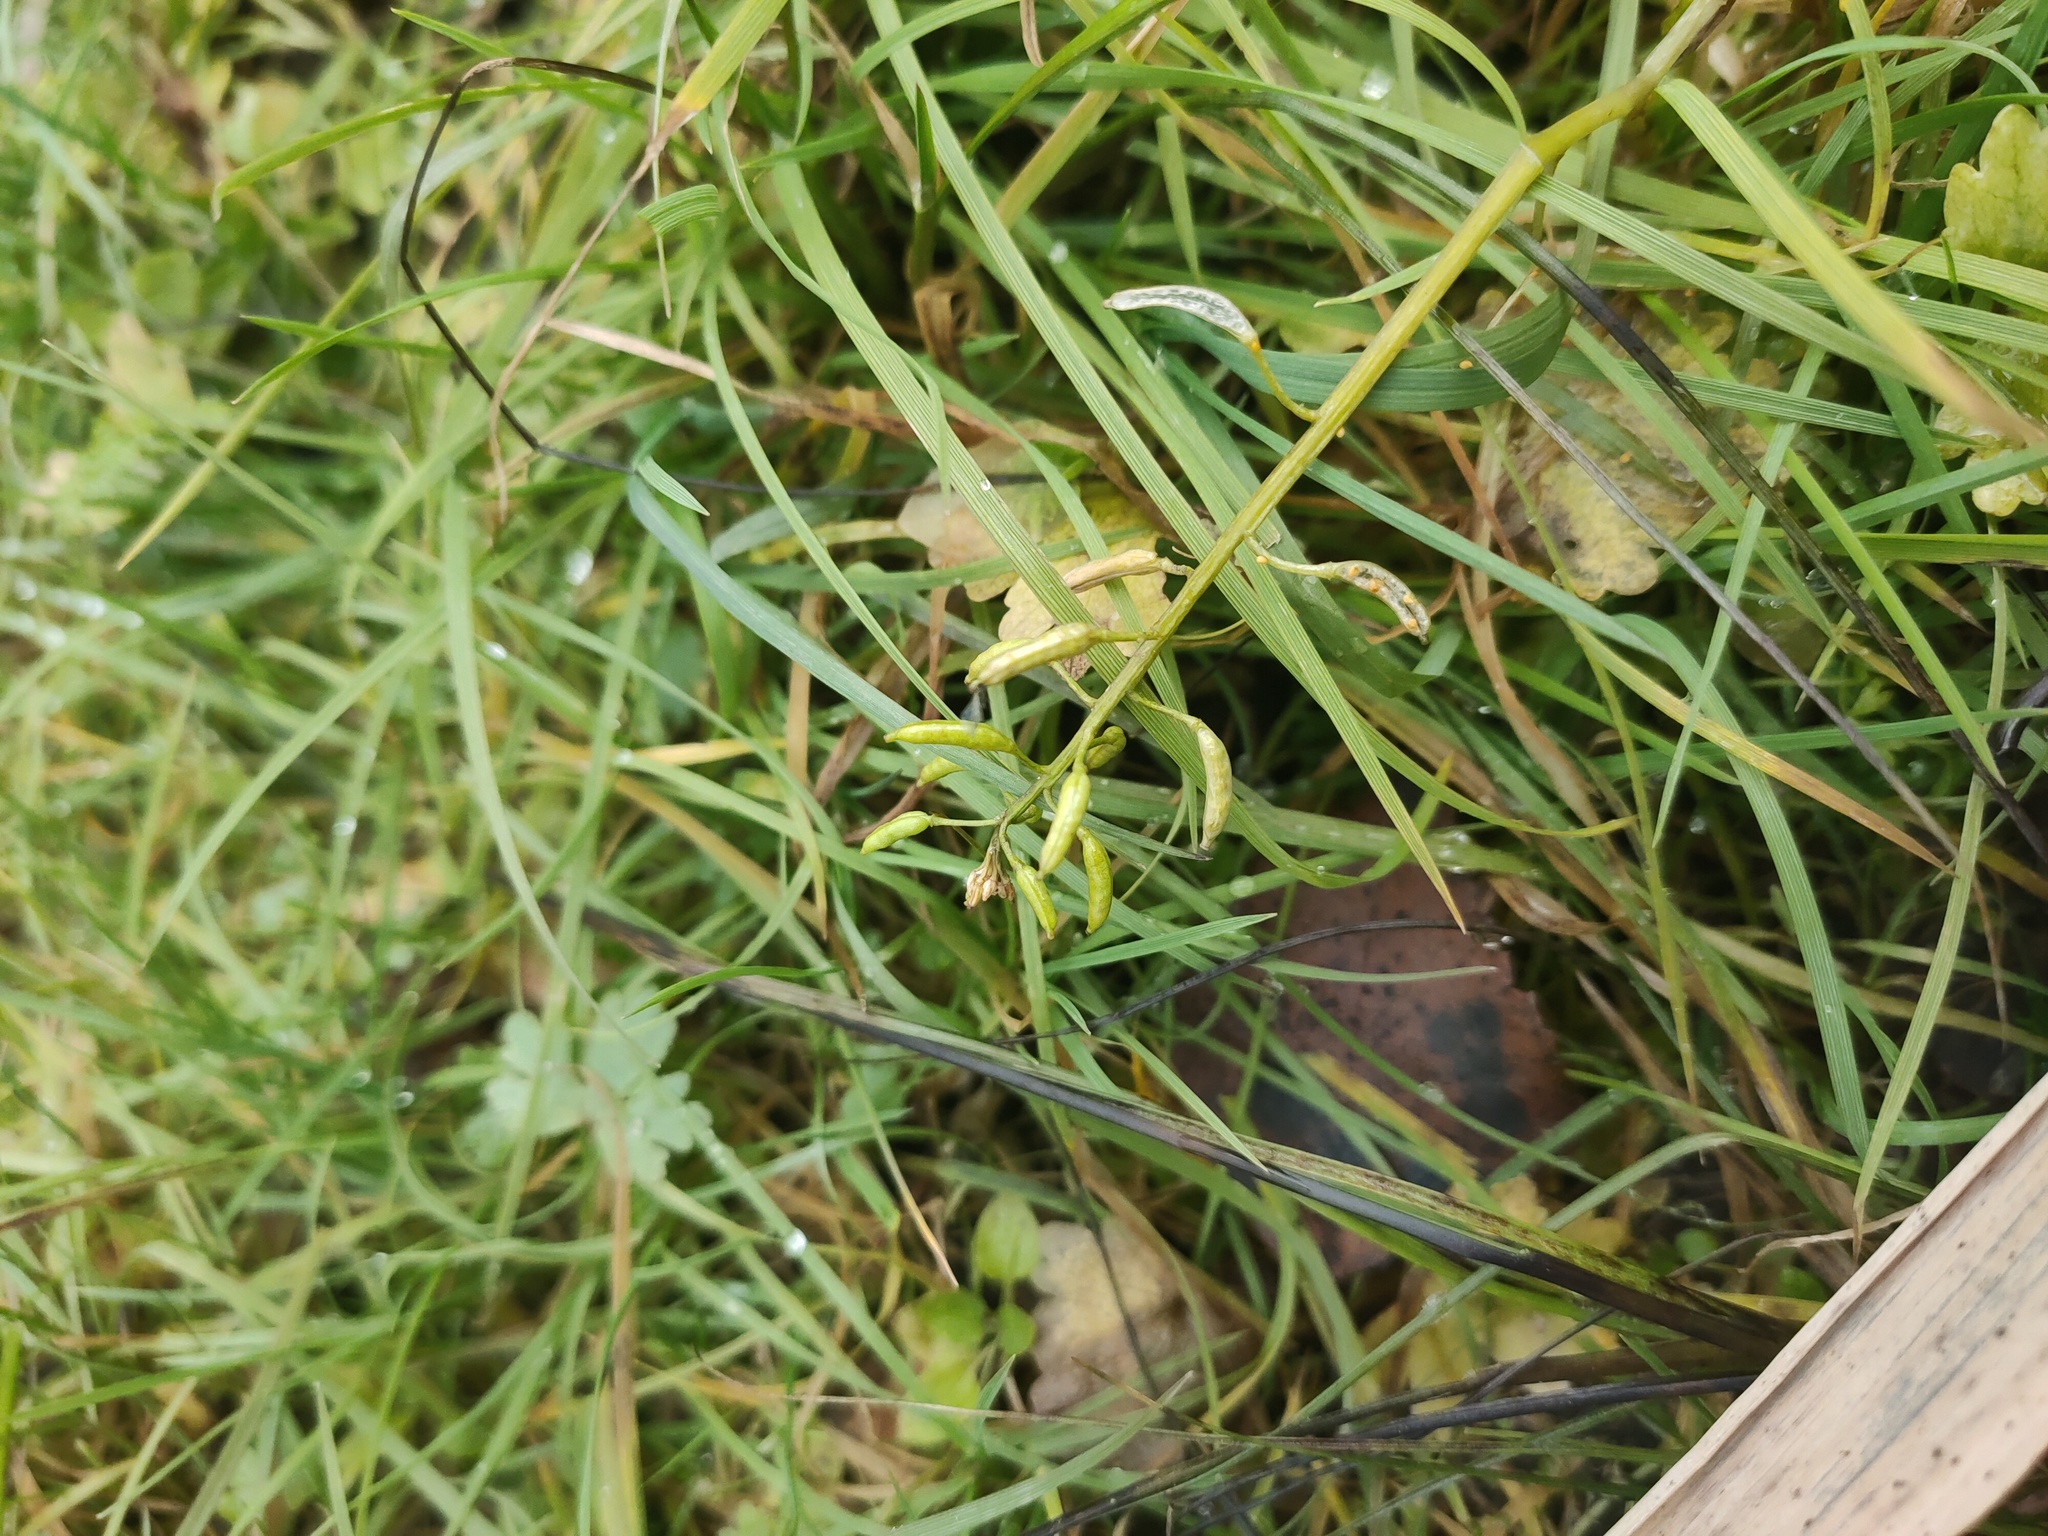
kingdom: Plantae
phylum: Tracheophyta
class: Magnoliopsida
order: Brassicales
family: Brassicaceae
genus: Rorippa
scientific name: Rorippa palustris
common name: Marsh yellow-cress
